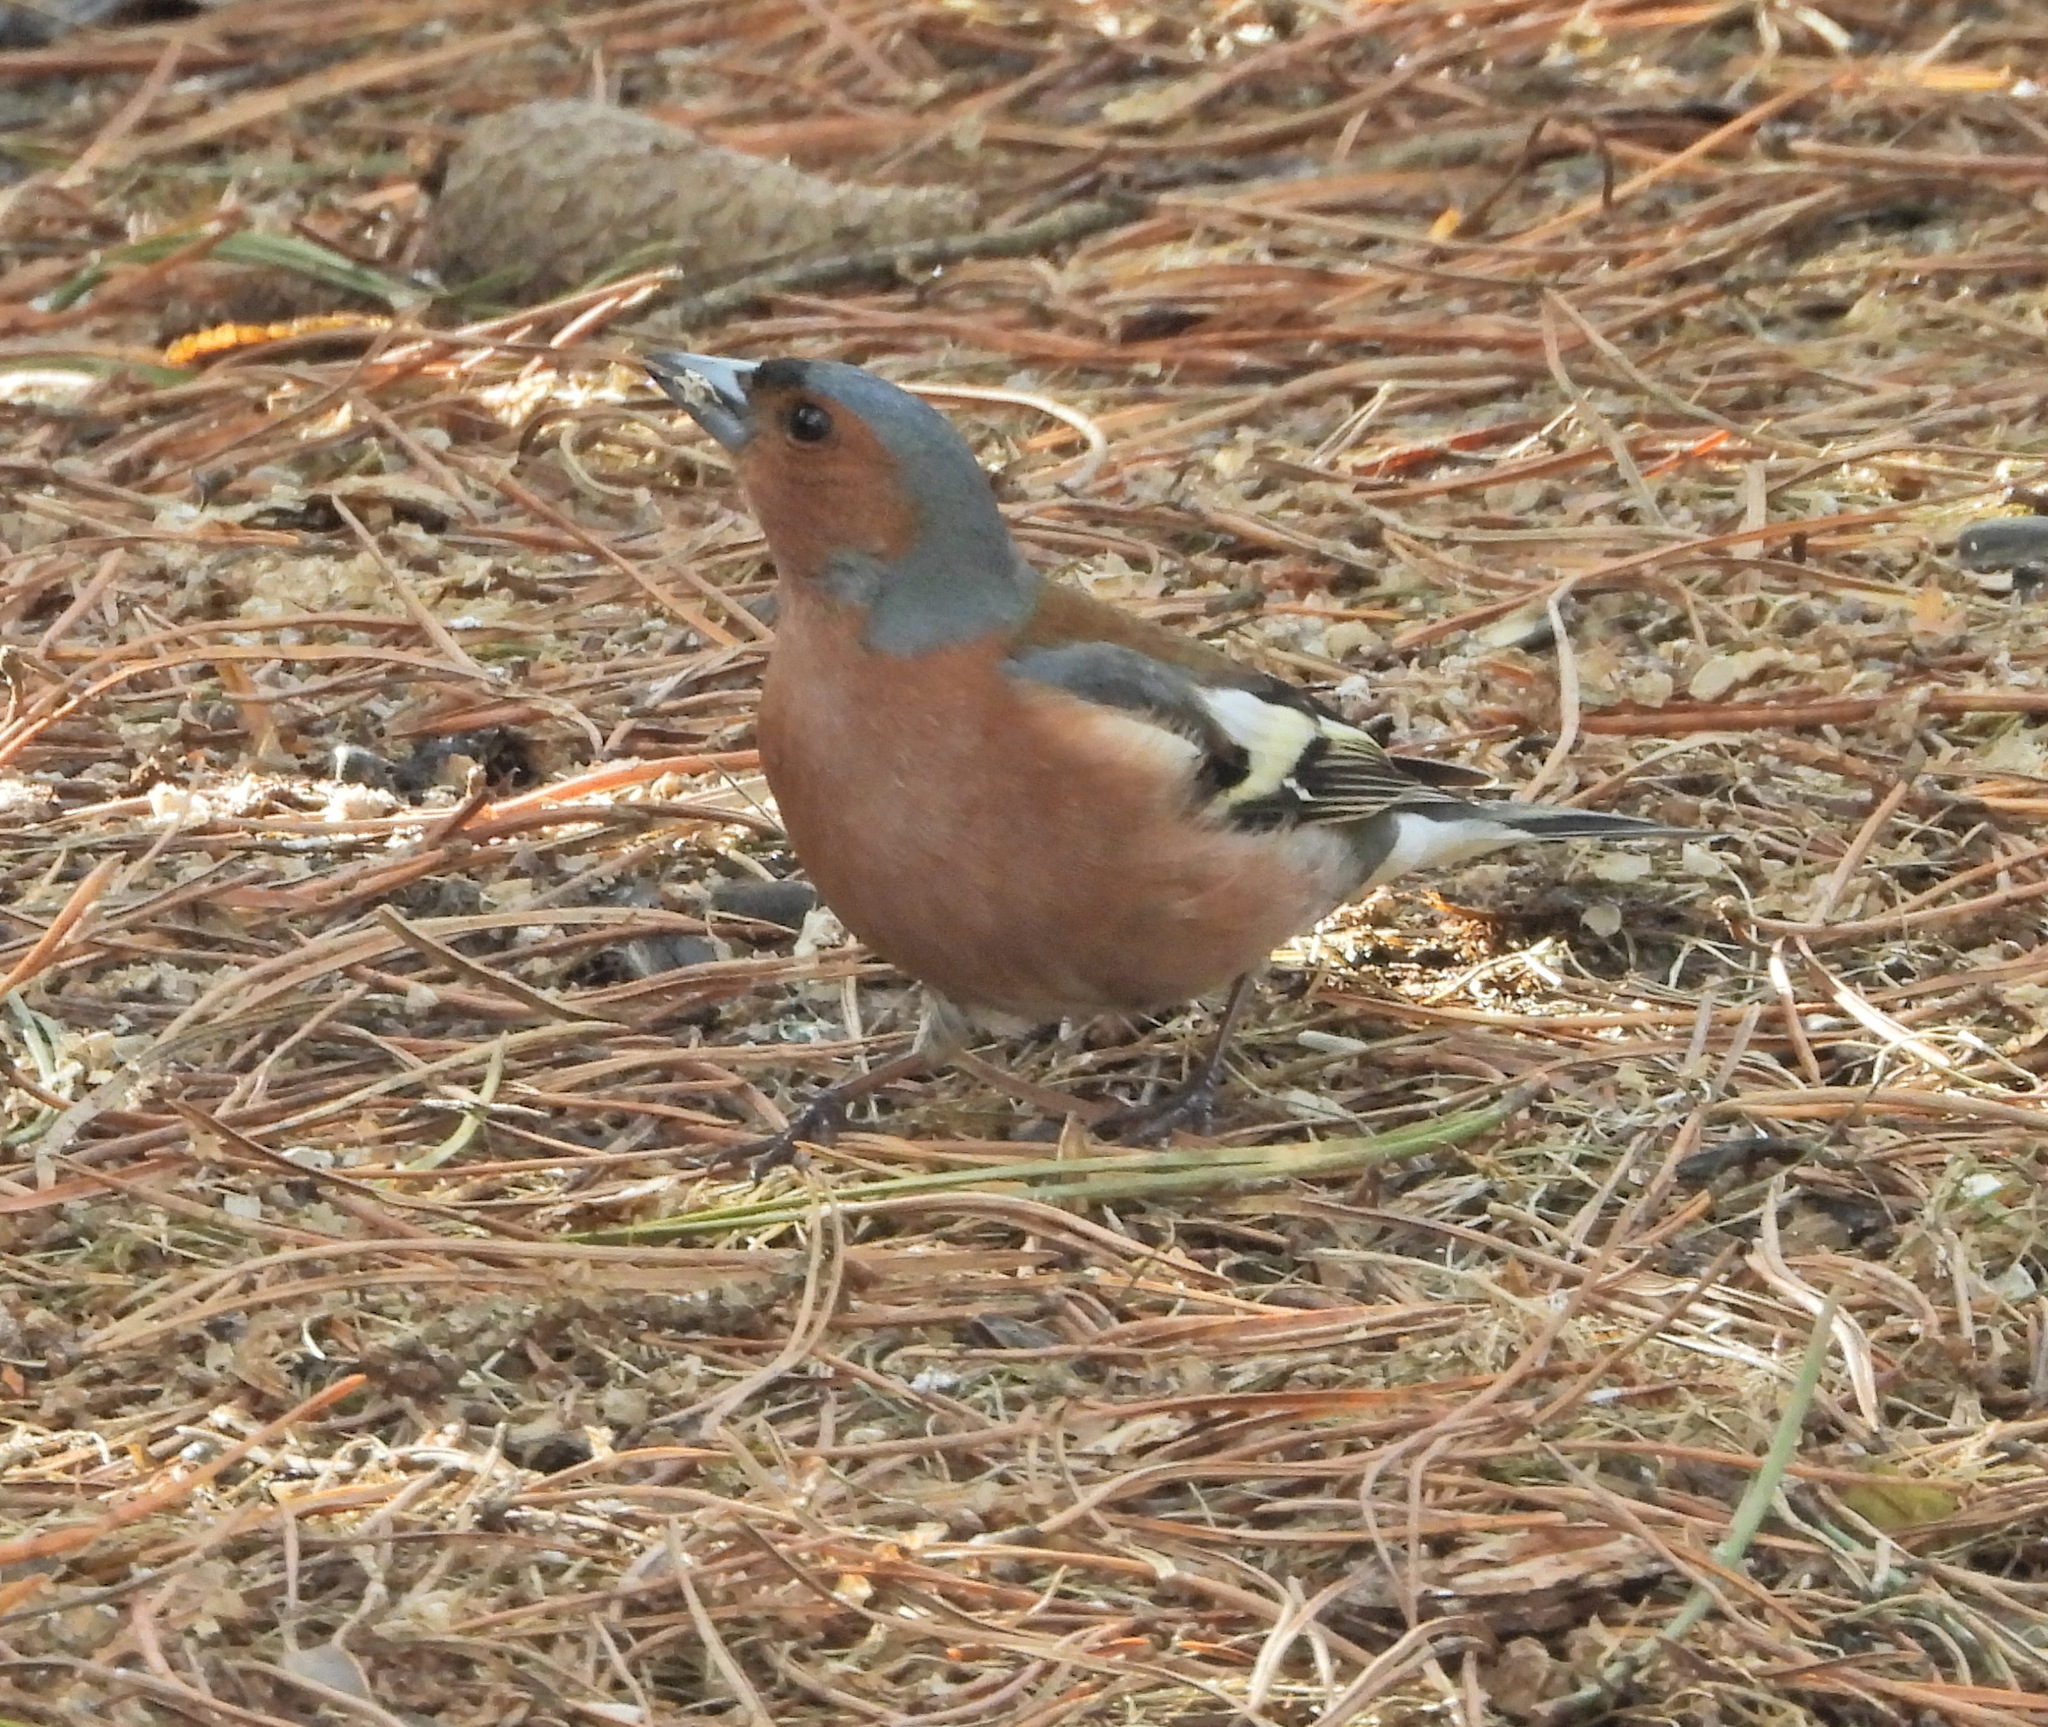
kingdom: Animalia
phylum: Chordata
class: Aves
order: Passeriformes
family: Fringillidae
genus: Fringilla
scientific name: Fringilla coelebs
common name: Common chaffinch
